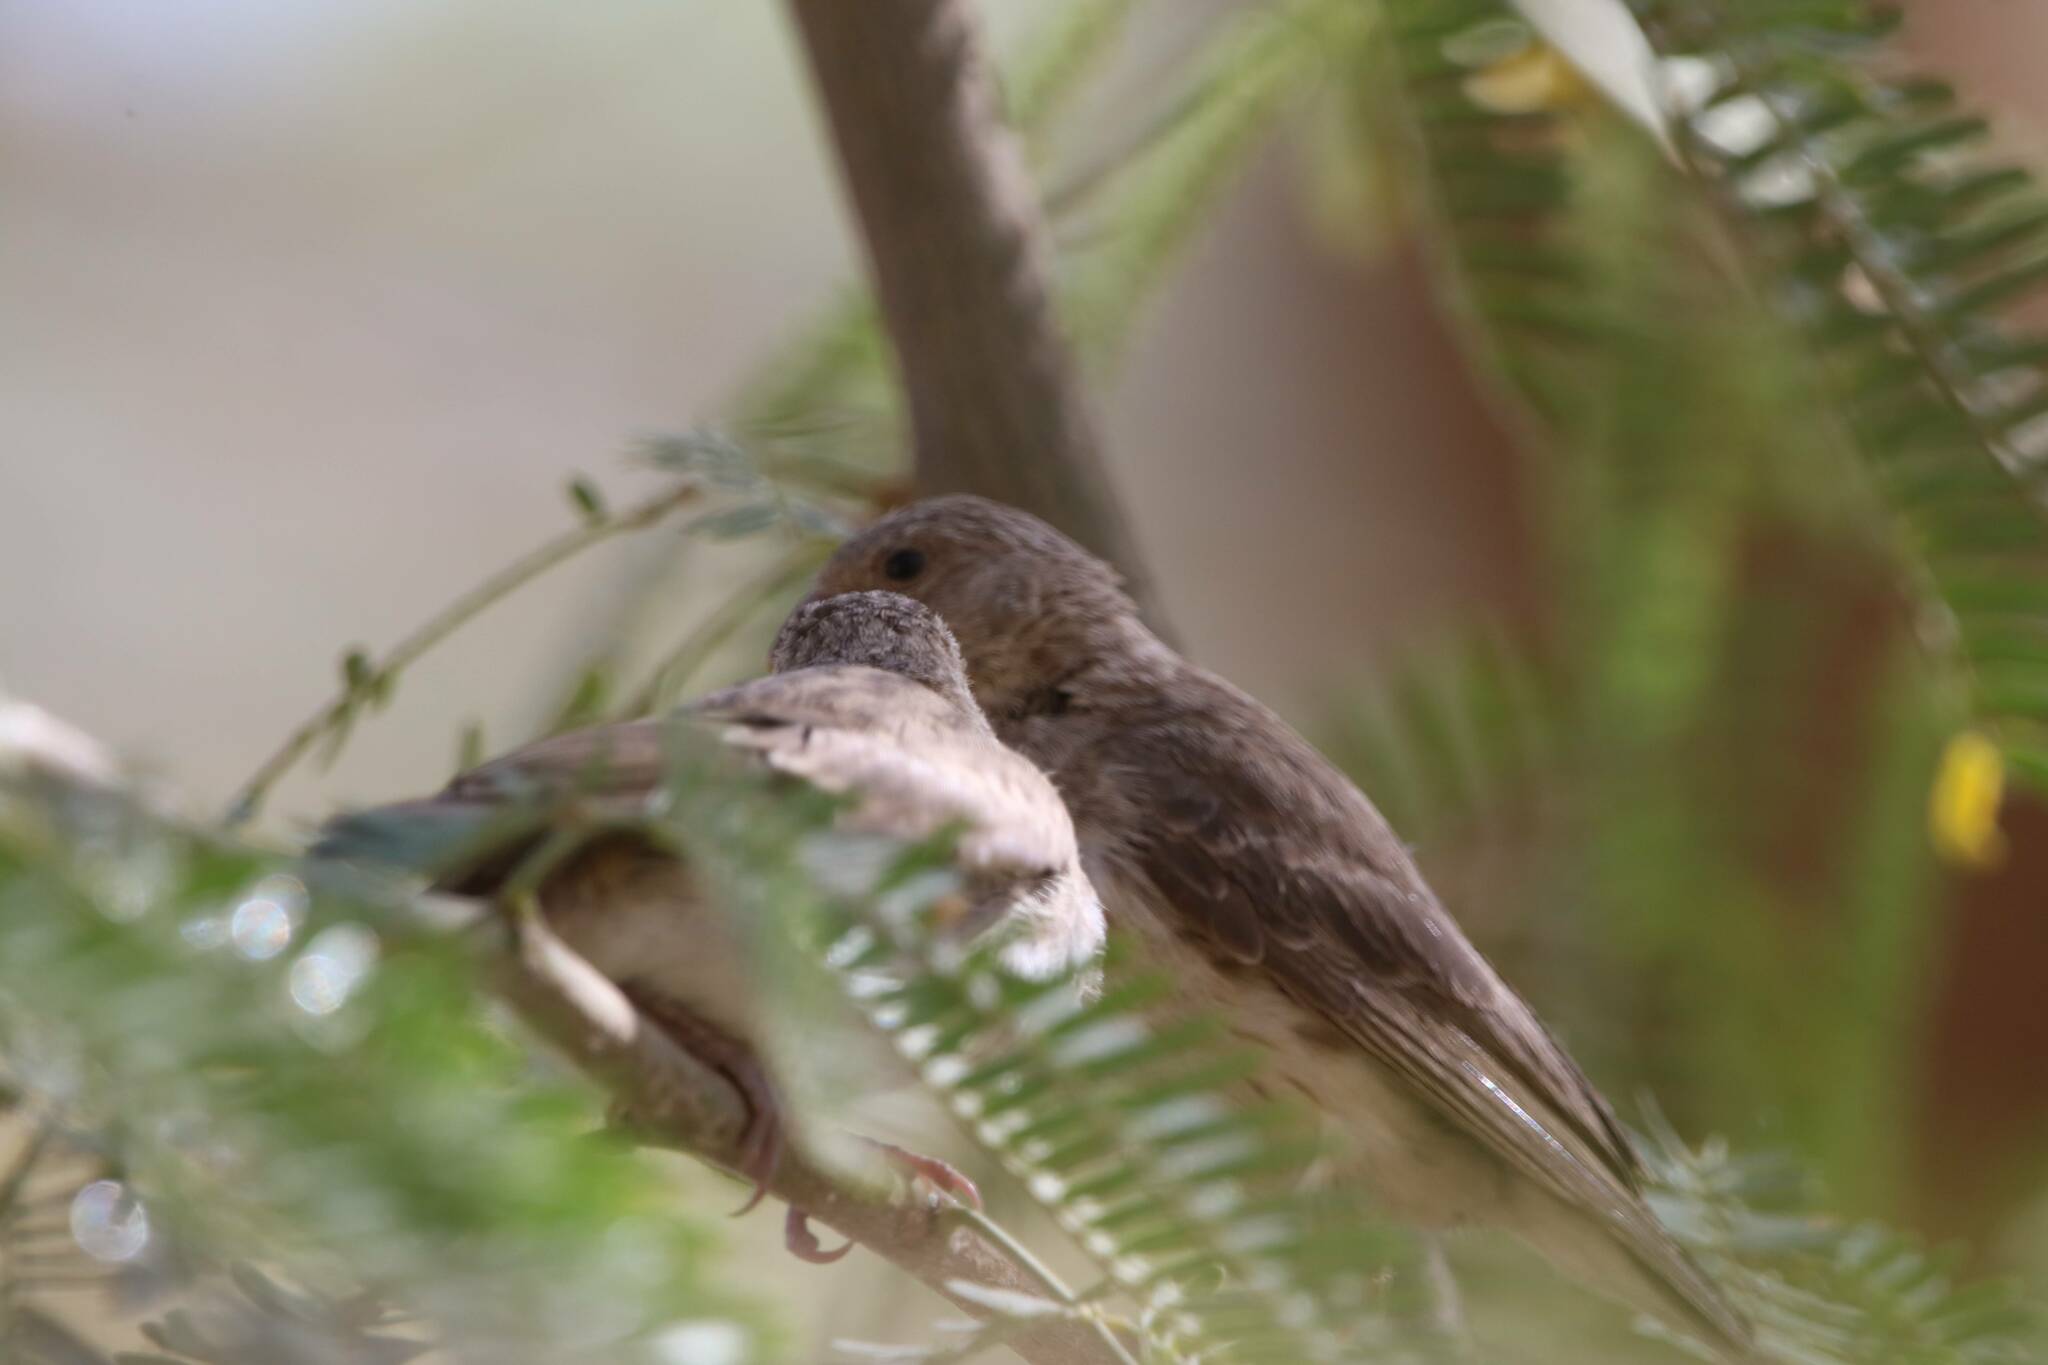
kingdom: Animalia
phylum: Chordata
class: Aves
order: Passeriformes
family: Fringillidae
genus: Crithagra
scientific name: Crithagra leucopygia
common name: White-rumped seedeater
